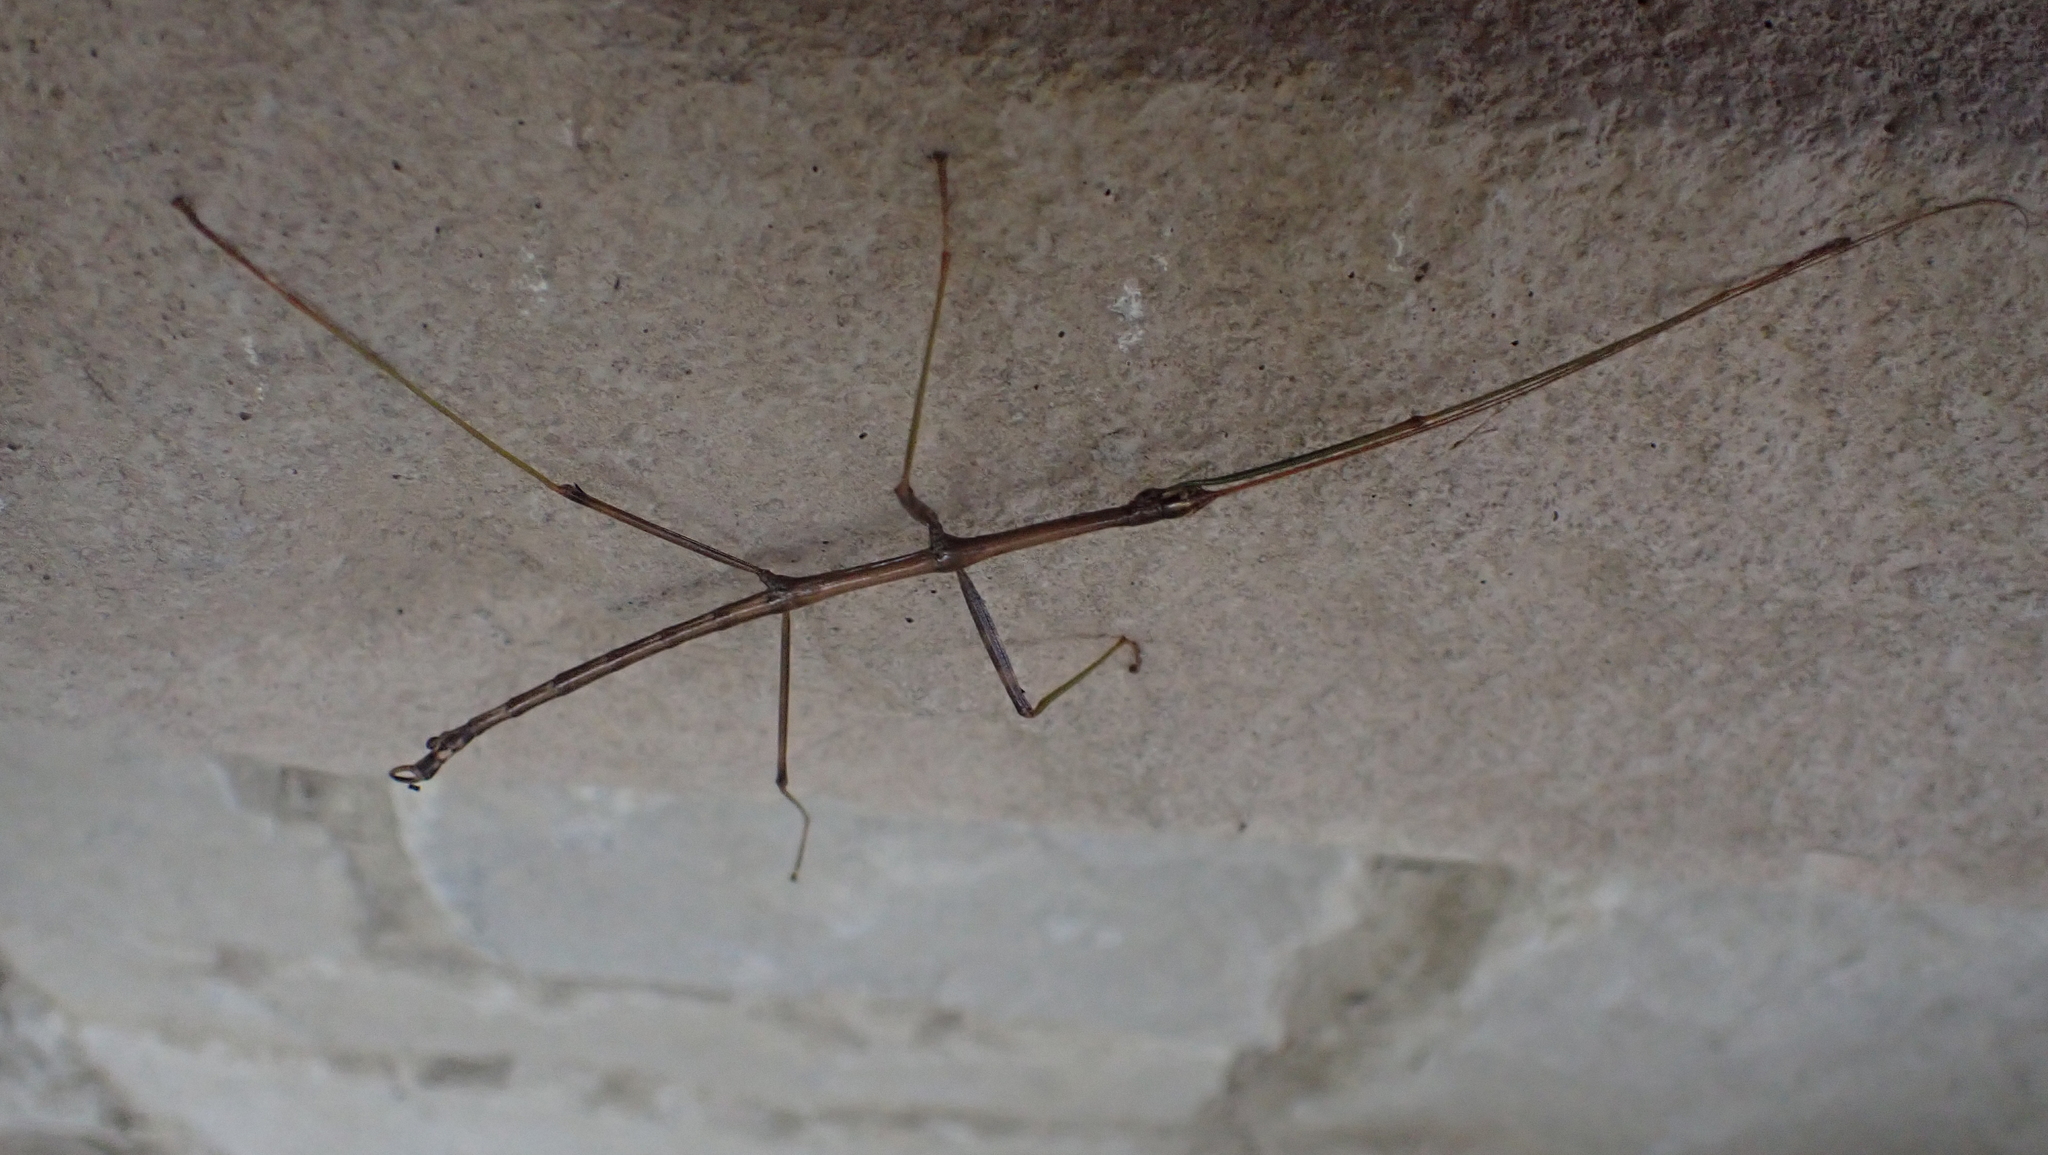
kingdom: Animalia
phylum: Arthropoda
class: Insecta
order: Phasmida
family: Diapheromeridae
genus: Diapheromera
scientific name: Diapheromera femorata
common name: Common american walkingstick
